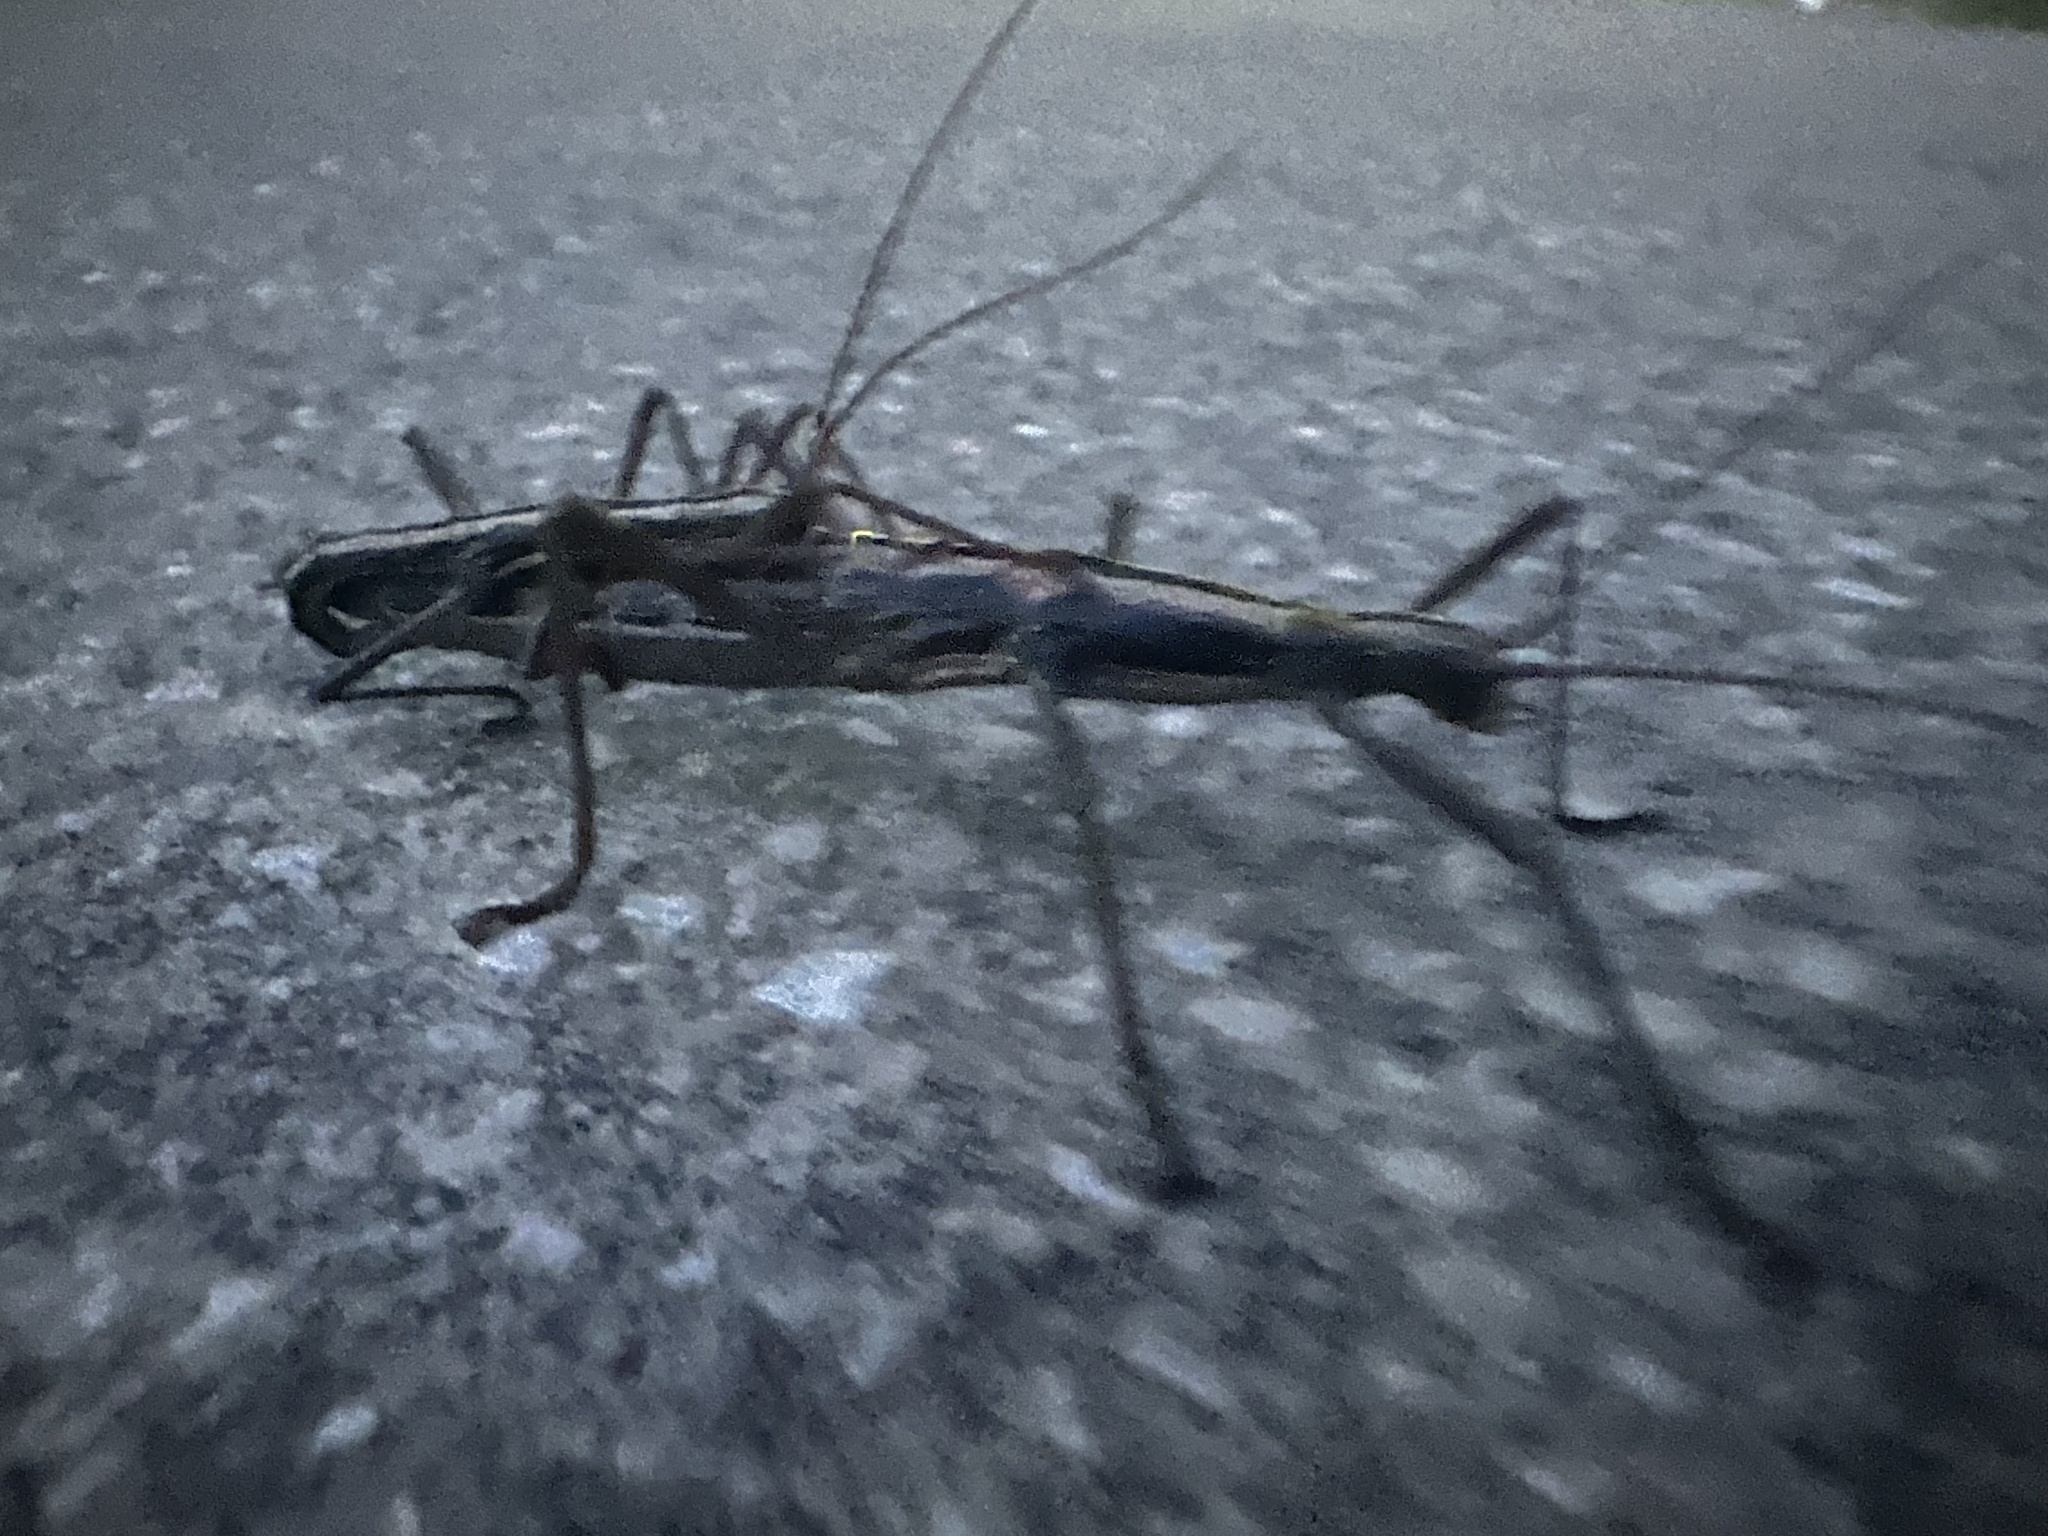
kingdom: Animalia
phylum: Arthropoda
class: Insecta
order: Phasmida
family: Pseudophasmatidae
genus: Anisomorpha
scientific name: Anisomorpha buprestoides
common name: Florida stick insect
